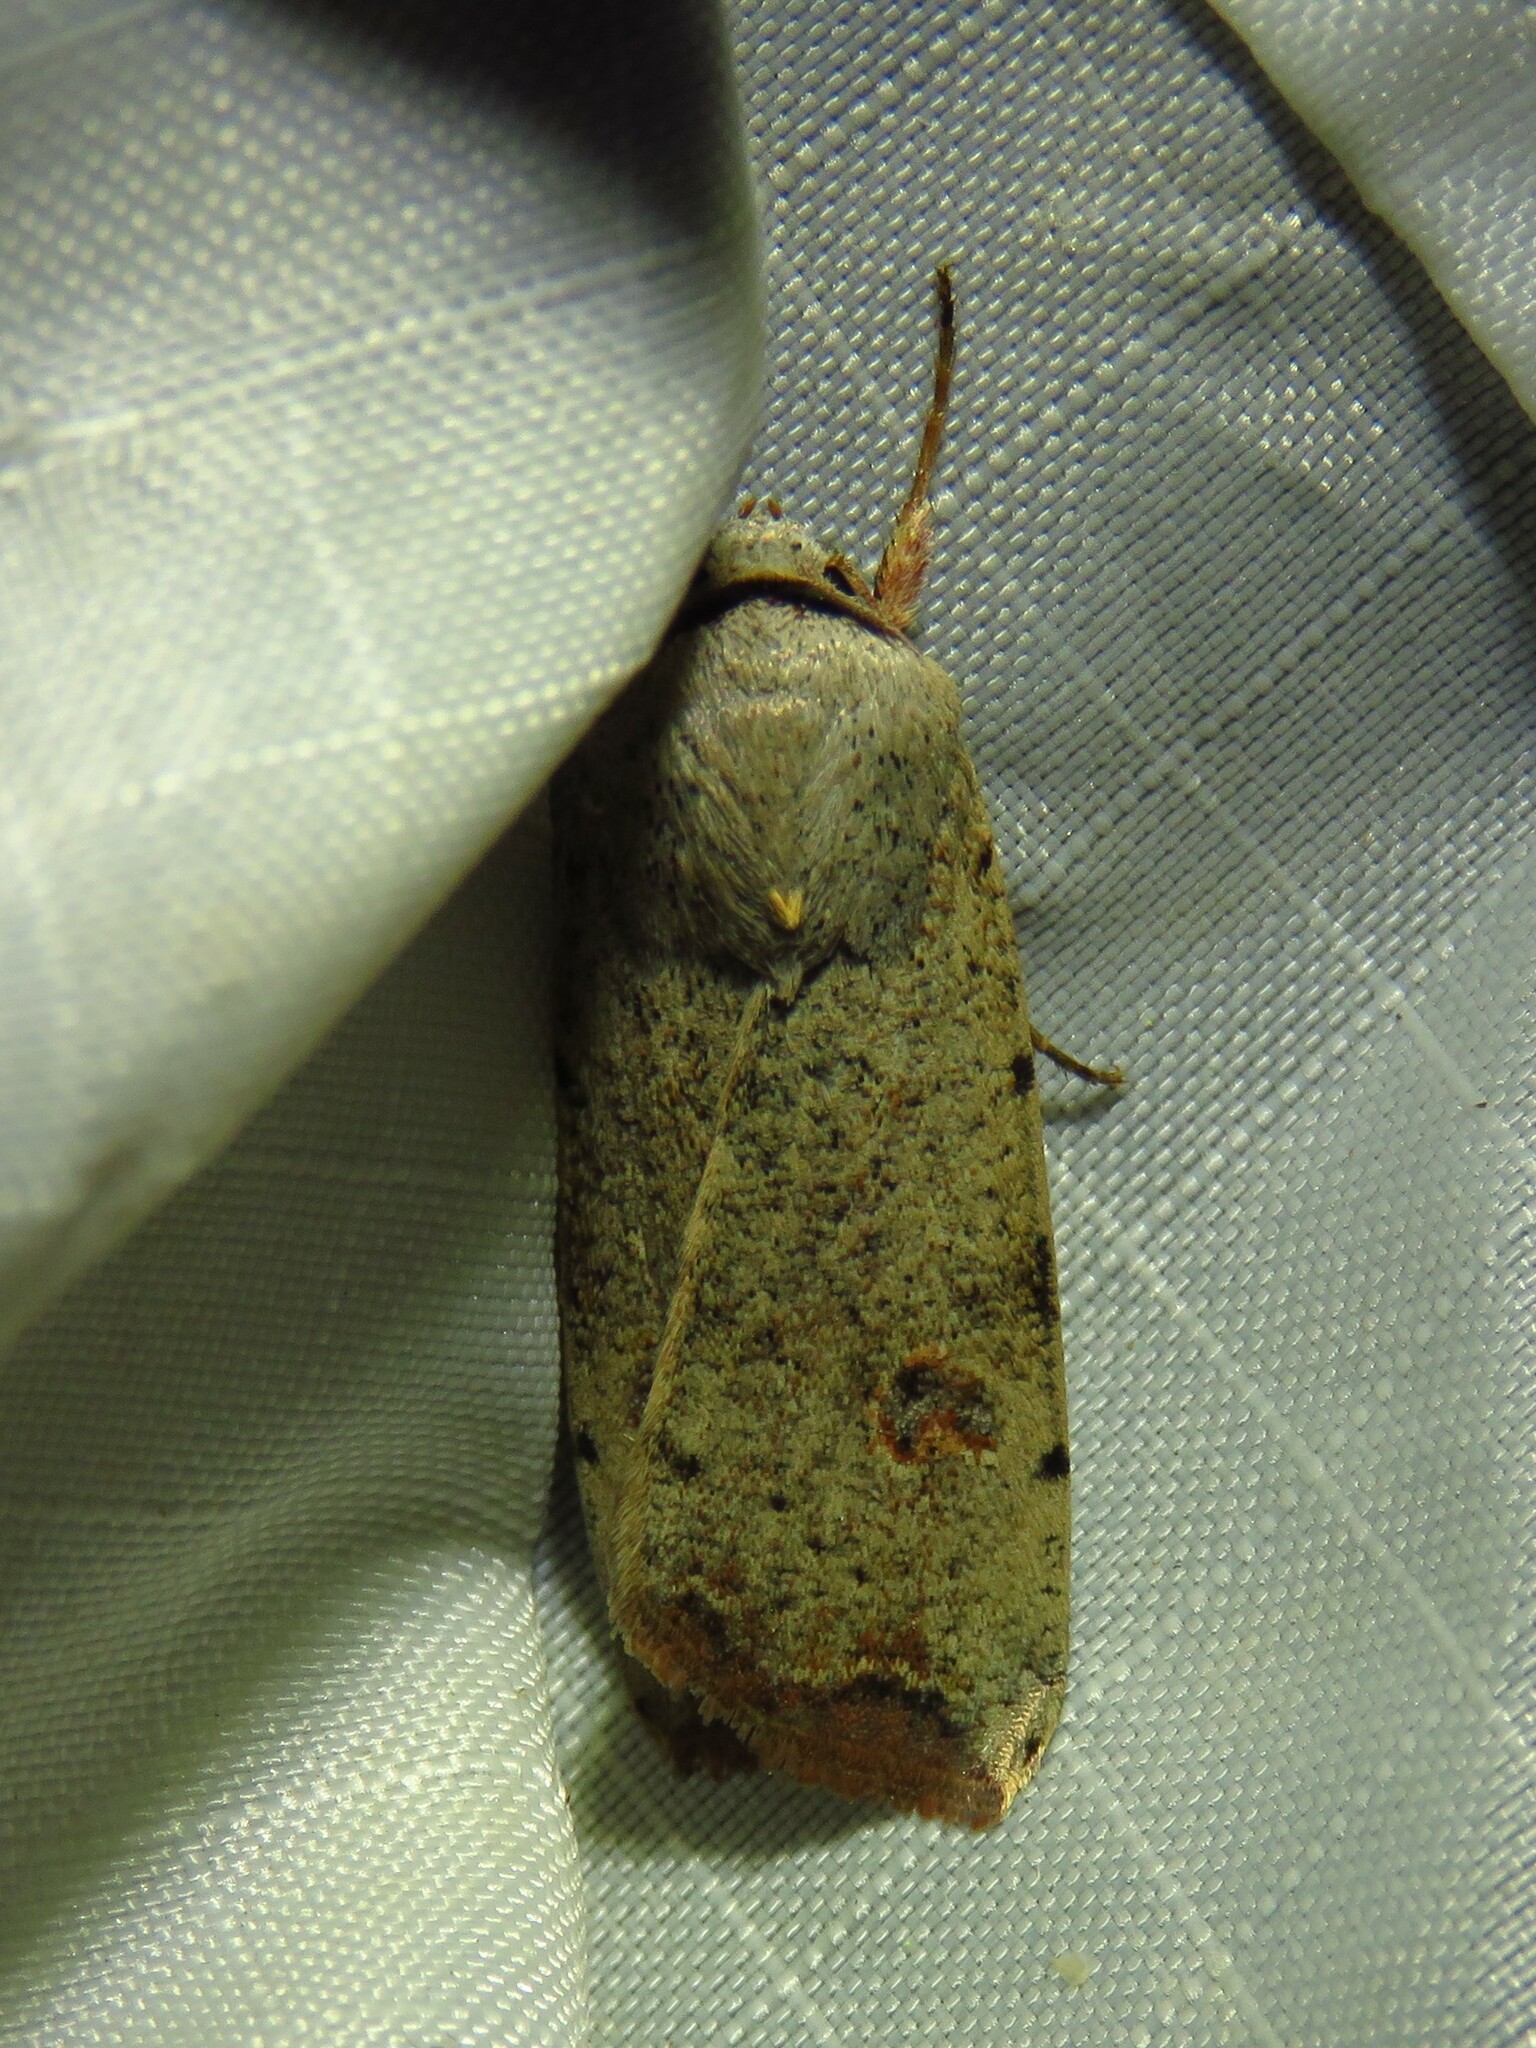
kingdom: Animalia
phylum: Arthropoda
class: Insecta
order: Lepidoptera
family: Noctuidae
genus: Anicla
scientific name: Anicla infecta
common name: Green cutworm
